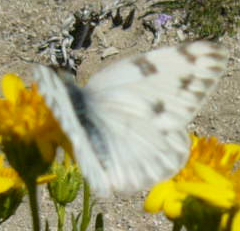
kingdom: Animalia
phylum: Arthropoda
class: Insecta
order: Lepidoptera
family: Pieridae
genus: Pontia
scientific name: Pontia protodice
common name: Checkered white
